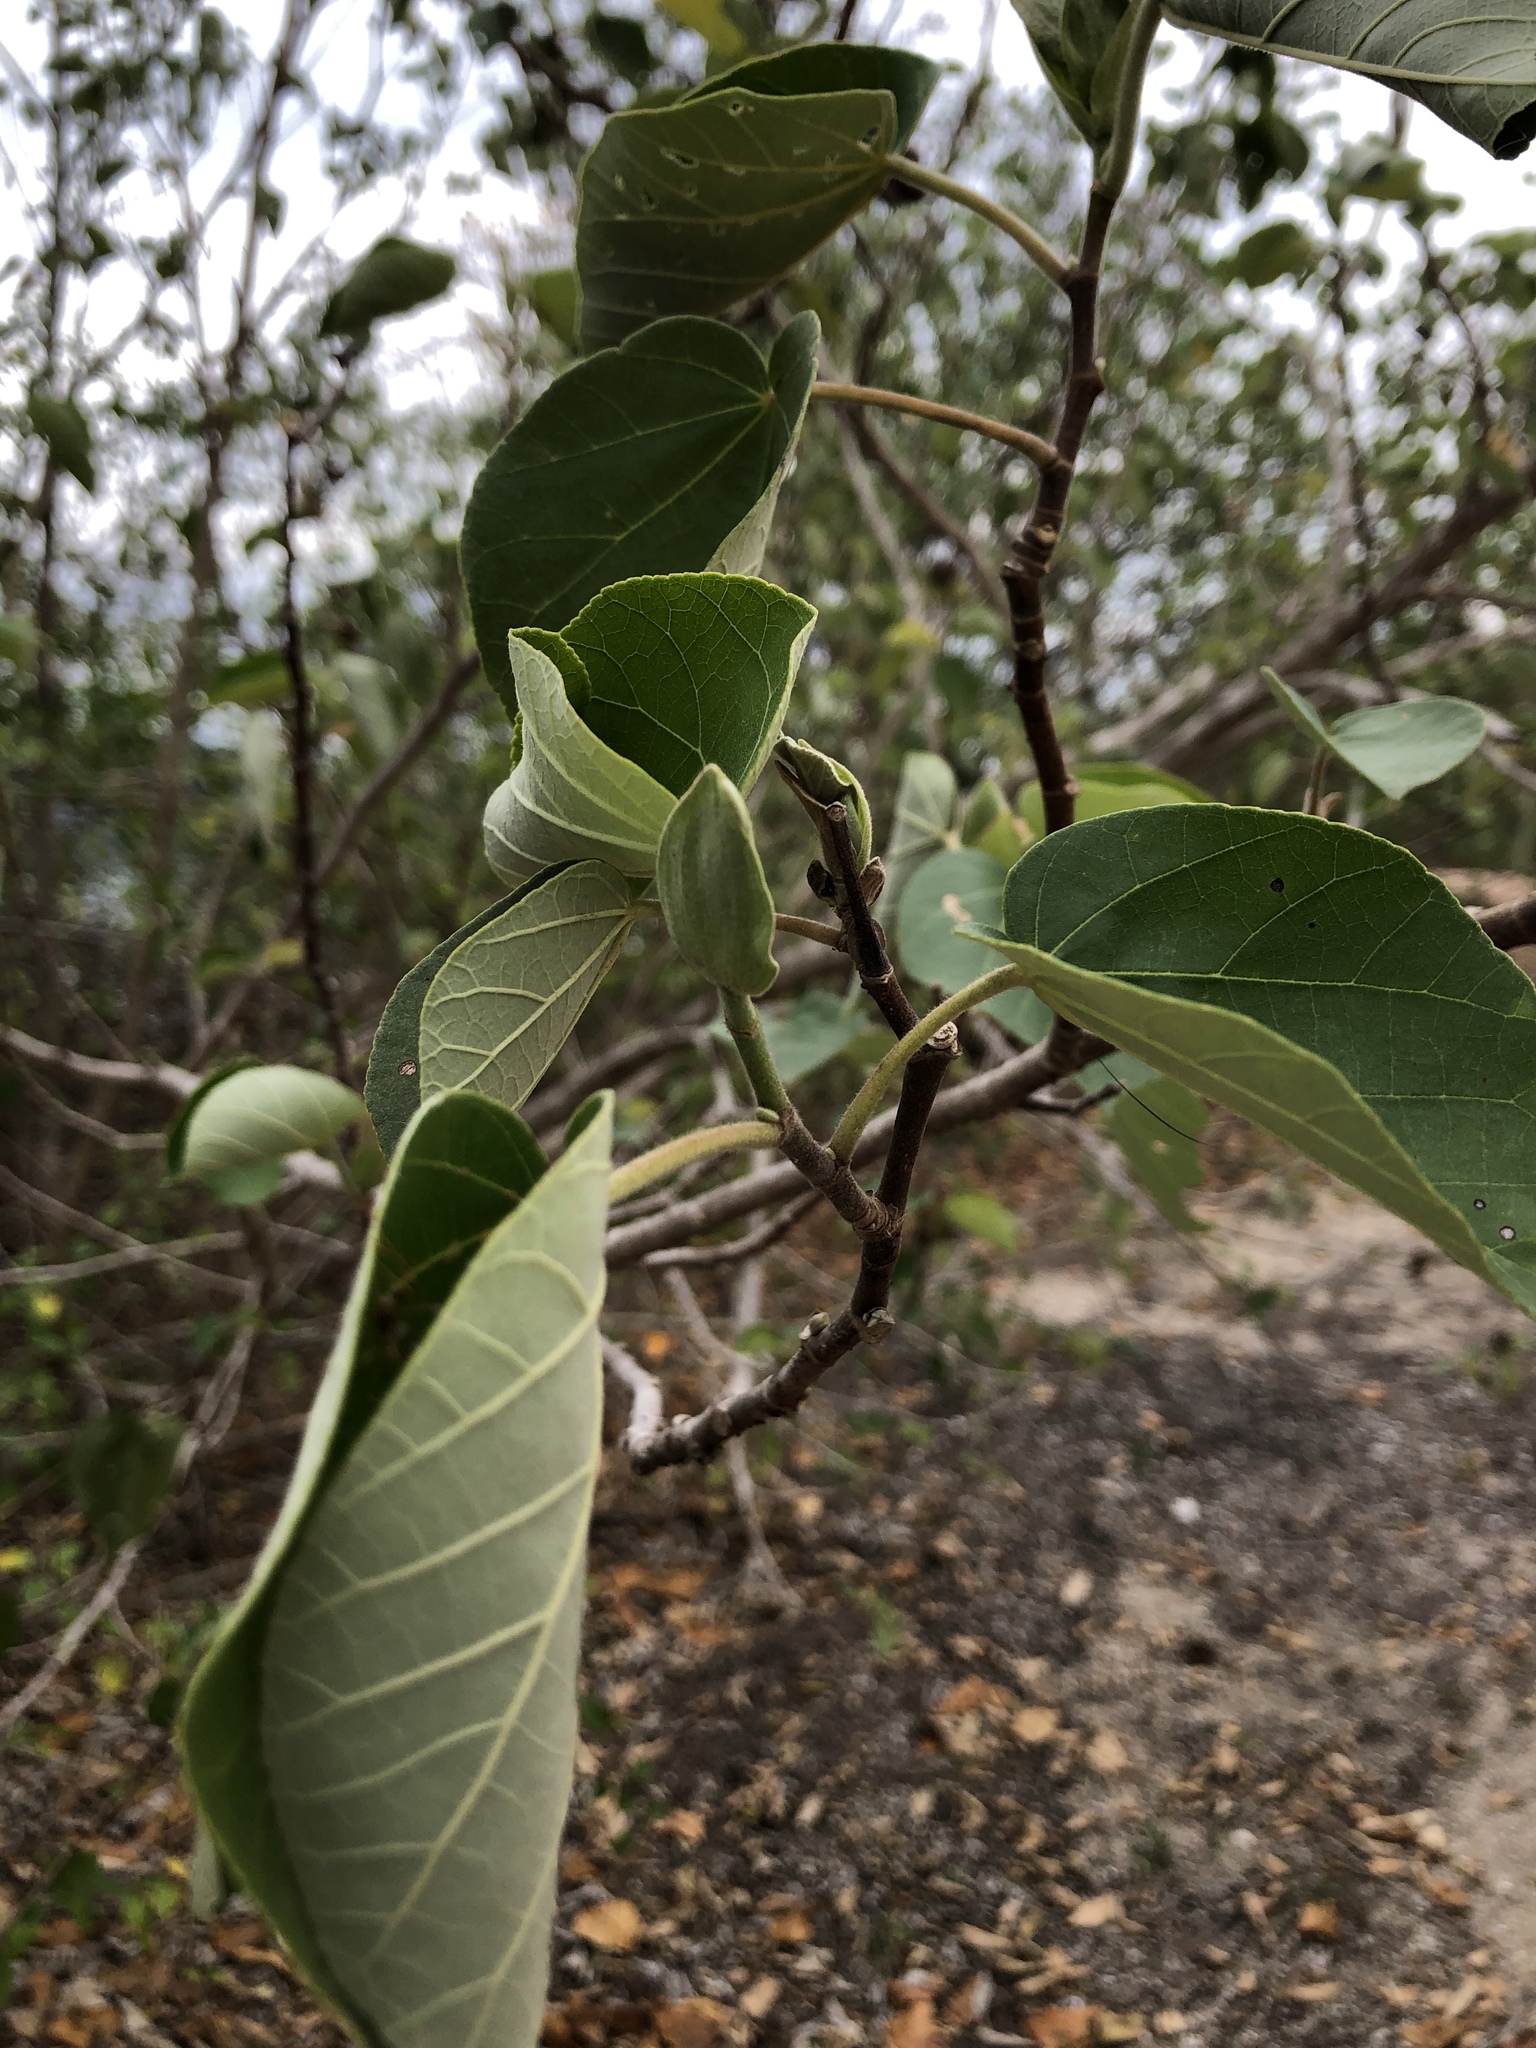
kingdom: Plantae
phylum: Tracheophyta
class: Magnoliopsida
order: Malvales
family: Malvaceae
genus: Talipariti
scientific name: Talipariti tiliaceum
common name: Sea hibiscus
